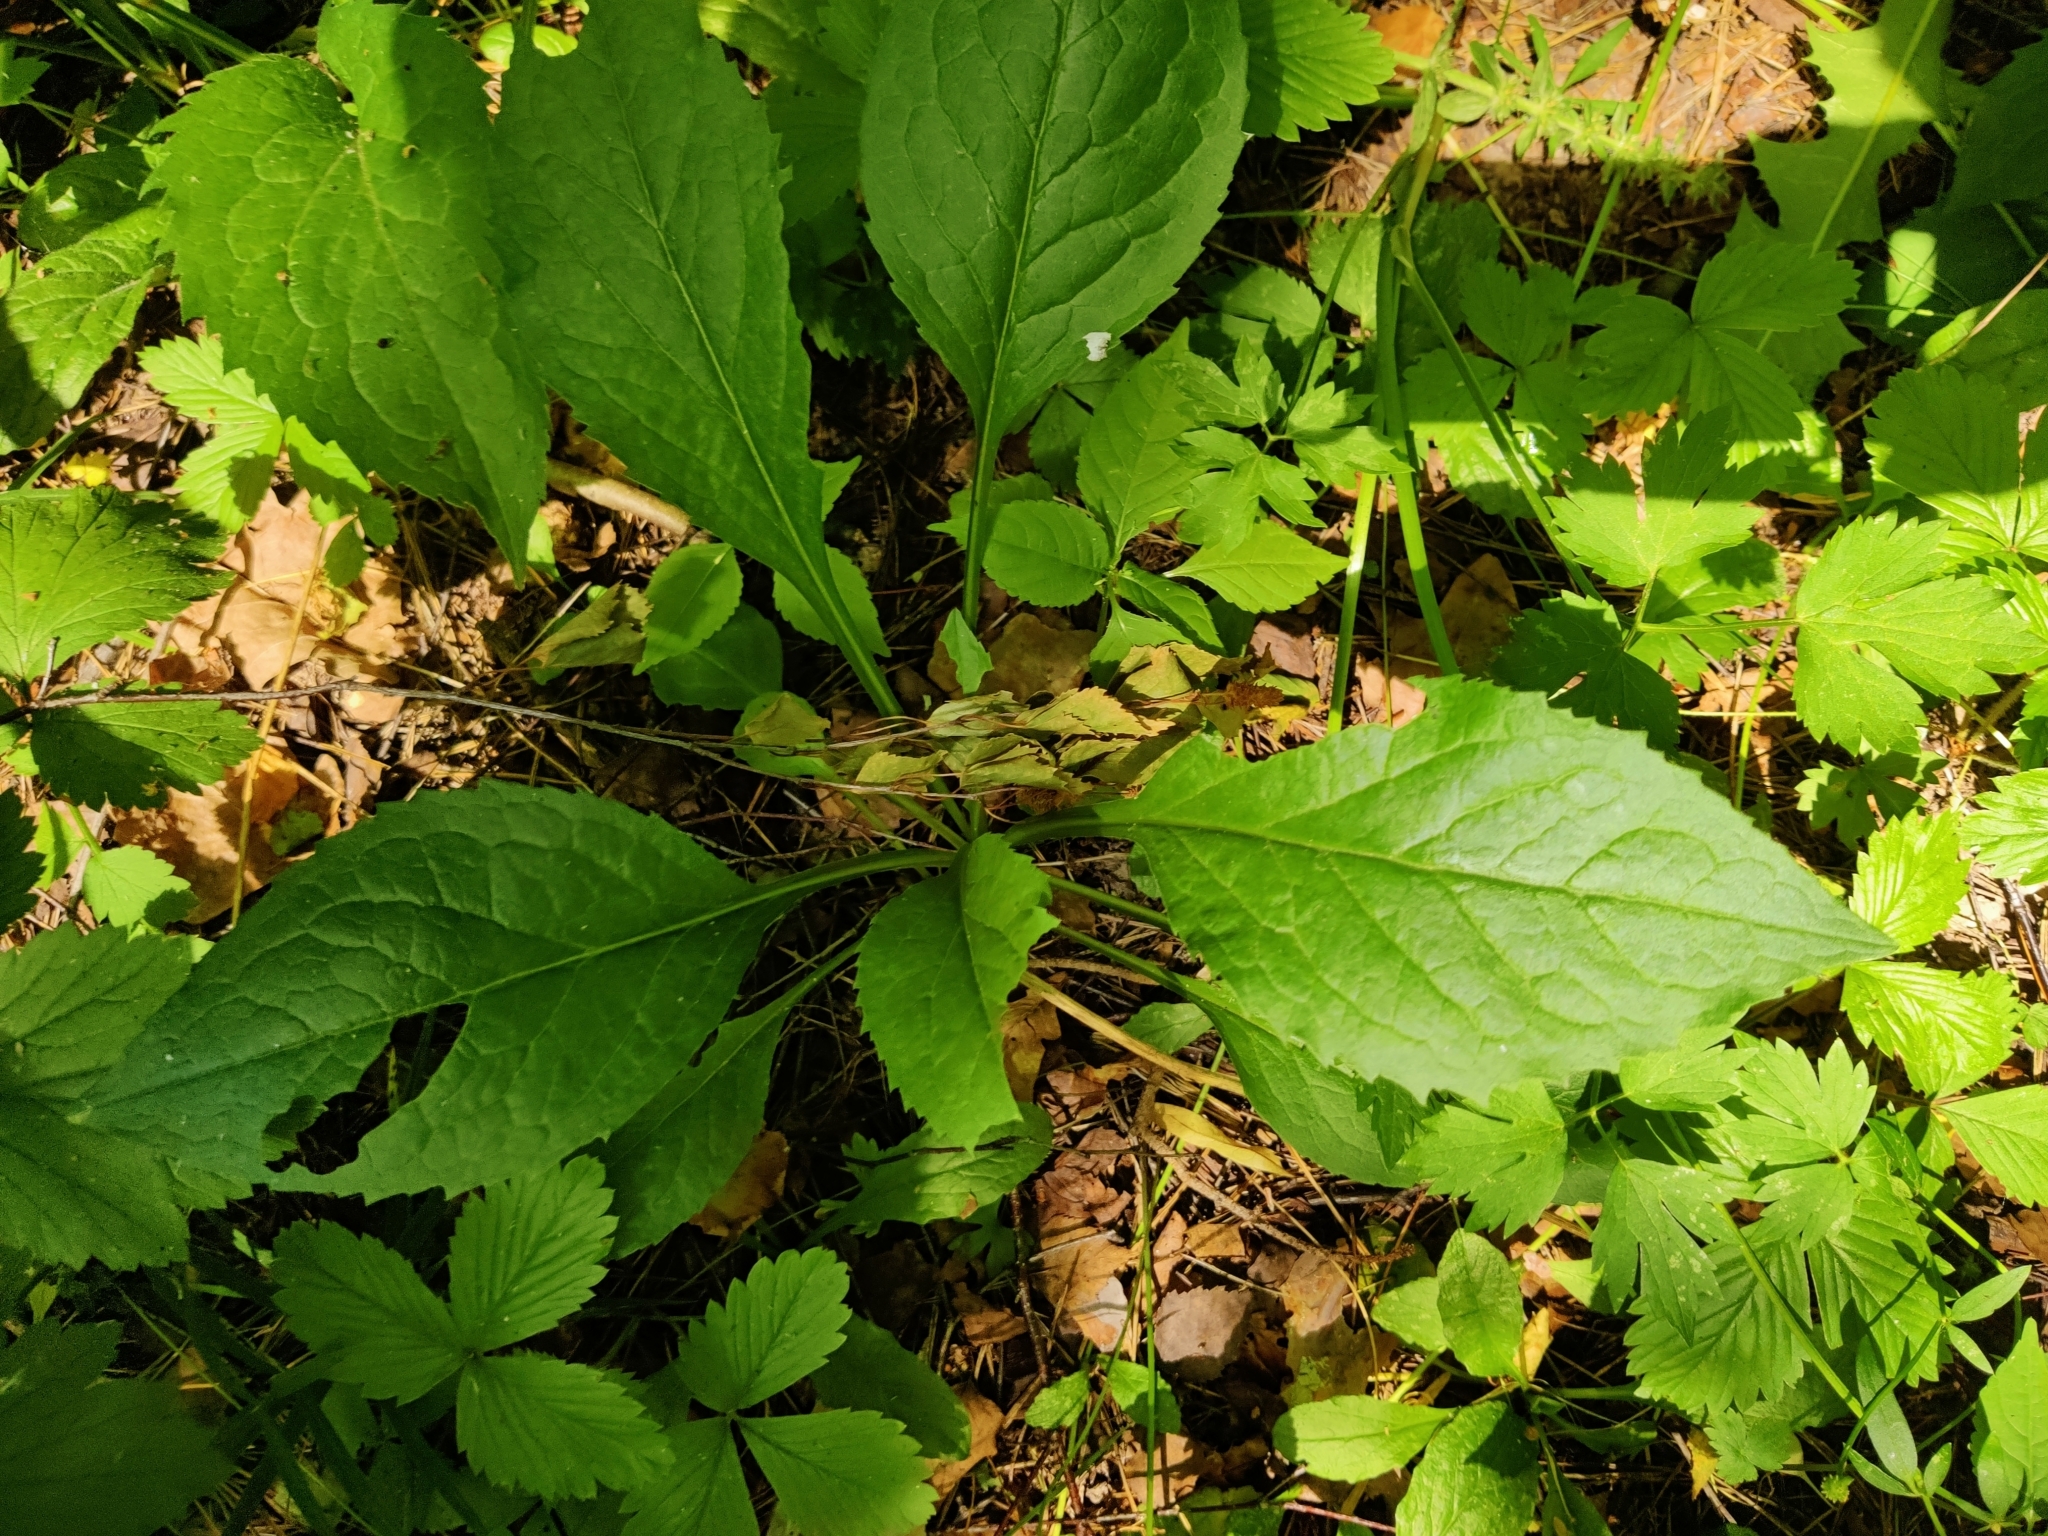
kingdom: Plantae
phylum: Tracheophyta
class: Magnoliopsida
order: Asterales
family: Asteraceae
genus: Solidago
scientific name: Solidago virgaurea
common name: Goldenrod
